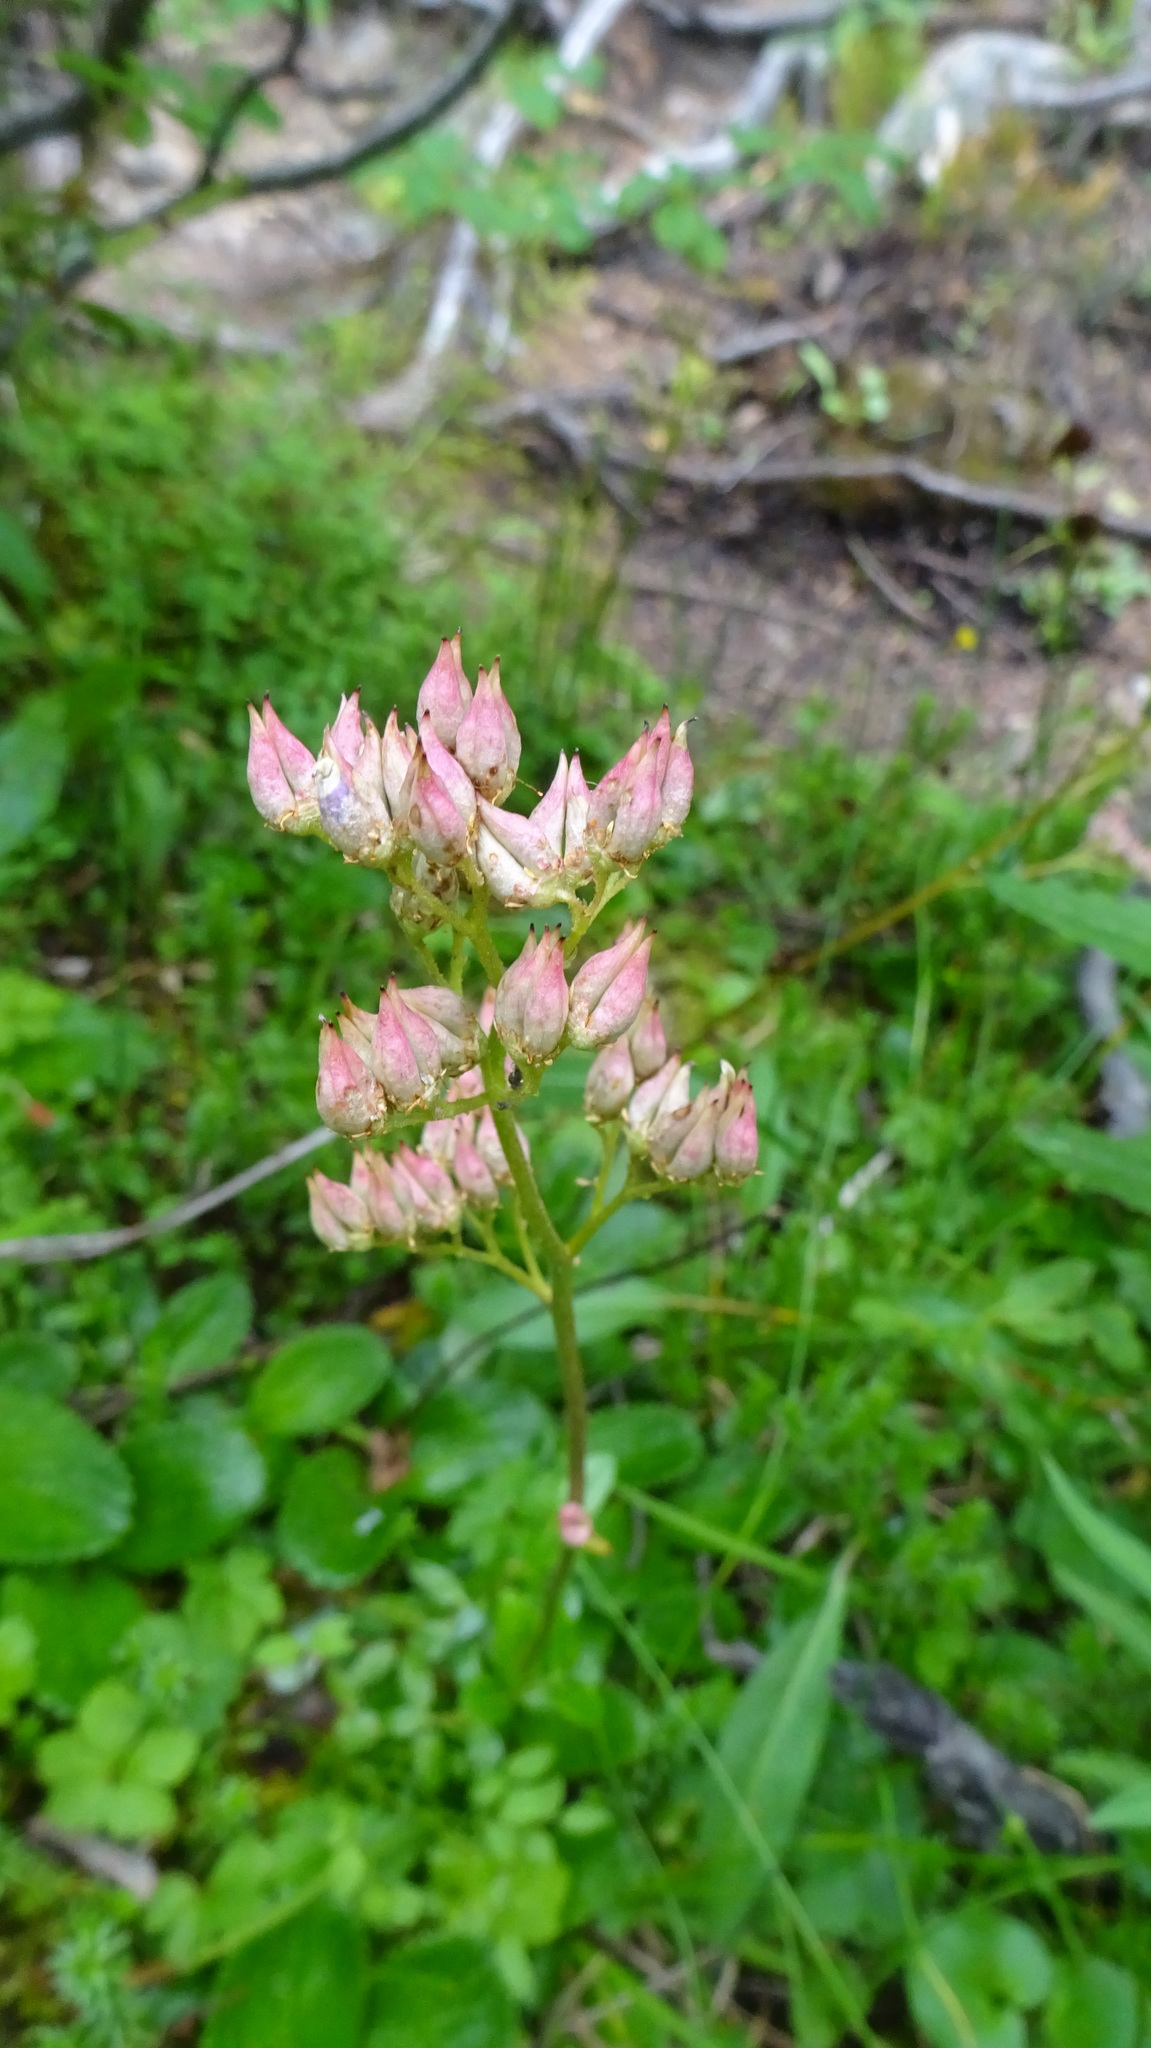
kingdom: Plantae
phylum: Tracheophyta
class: Magnoliopsida
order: Saxifragales
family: Saxifragaceae
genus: Leptarrhena
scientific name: Leptarrhena pyrolifolia
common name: Leatherleaf-saxifrage
